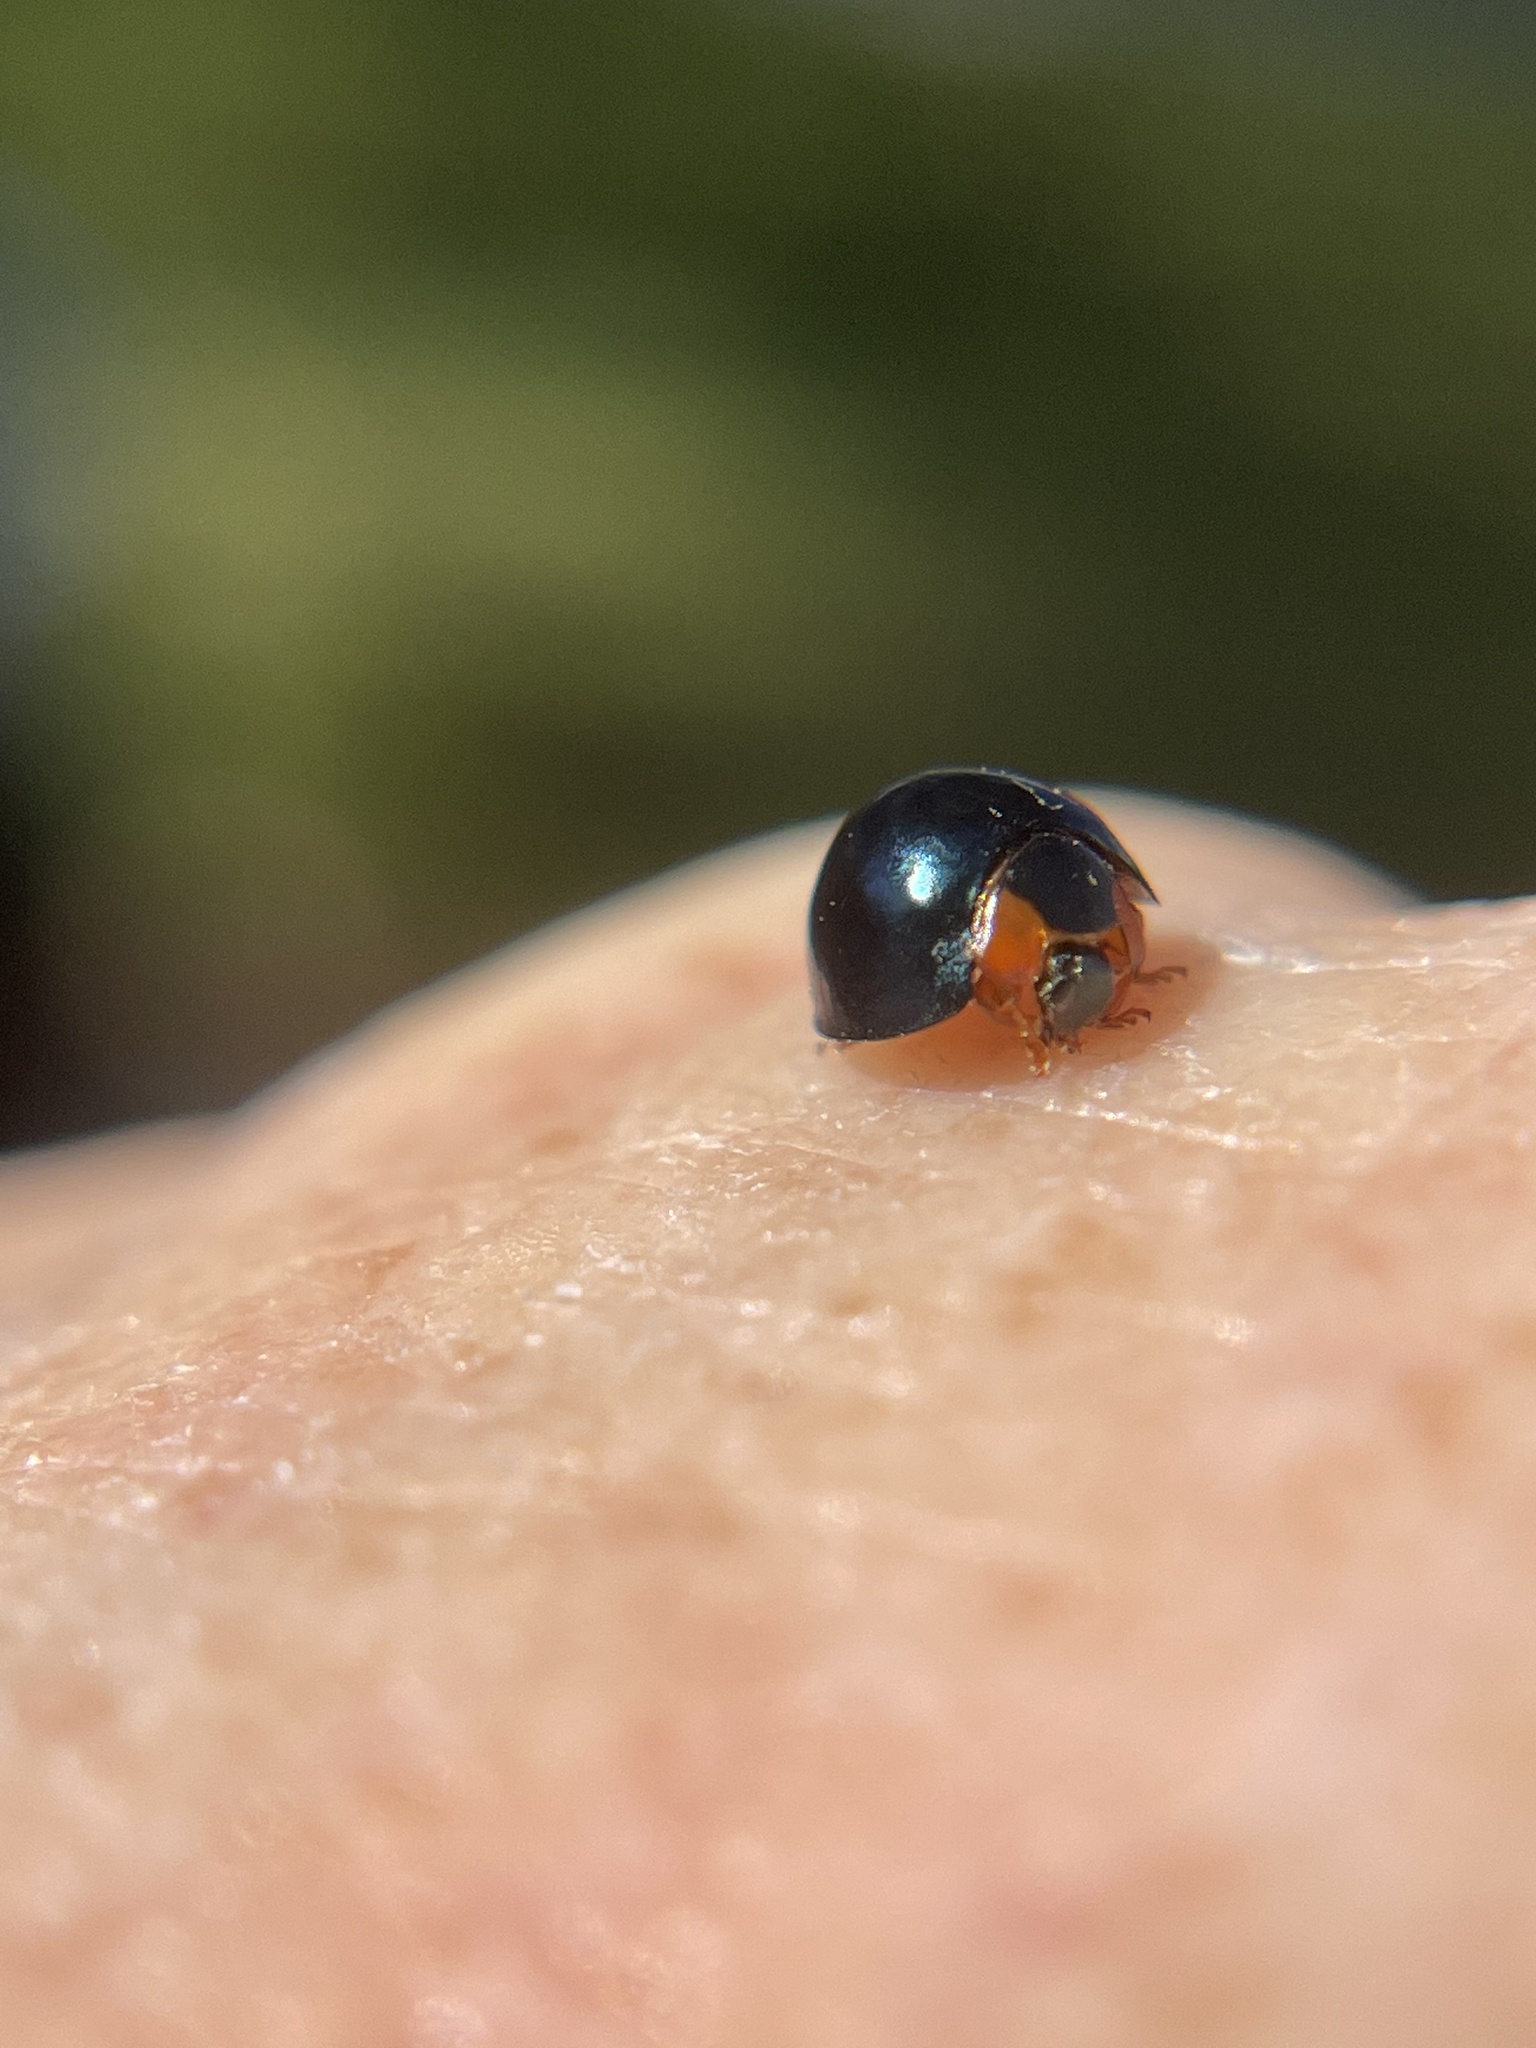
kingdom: Animalia
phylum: Arthropoda
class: Insecta
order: Coleoptera
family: Coccinellidae
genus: Curinus
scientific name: Curinus coeruleus
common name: Ladybird beetle
